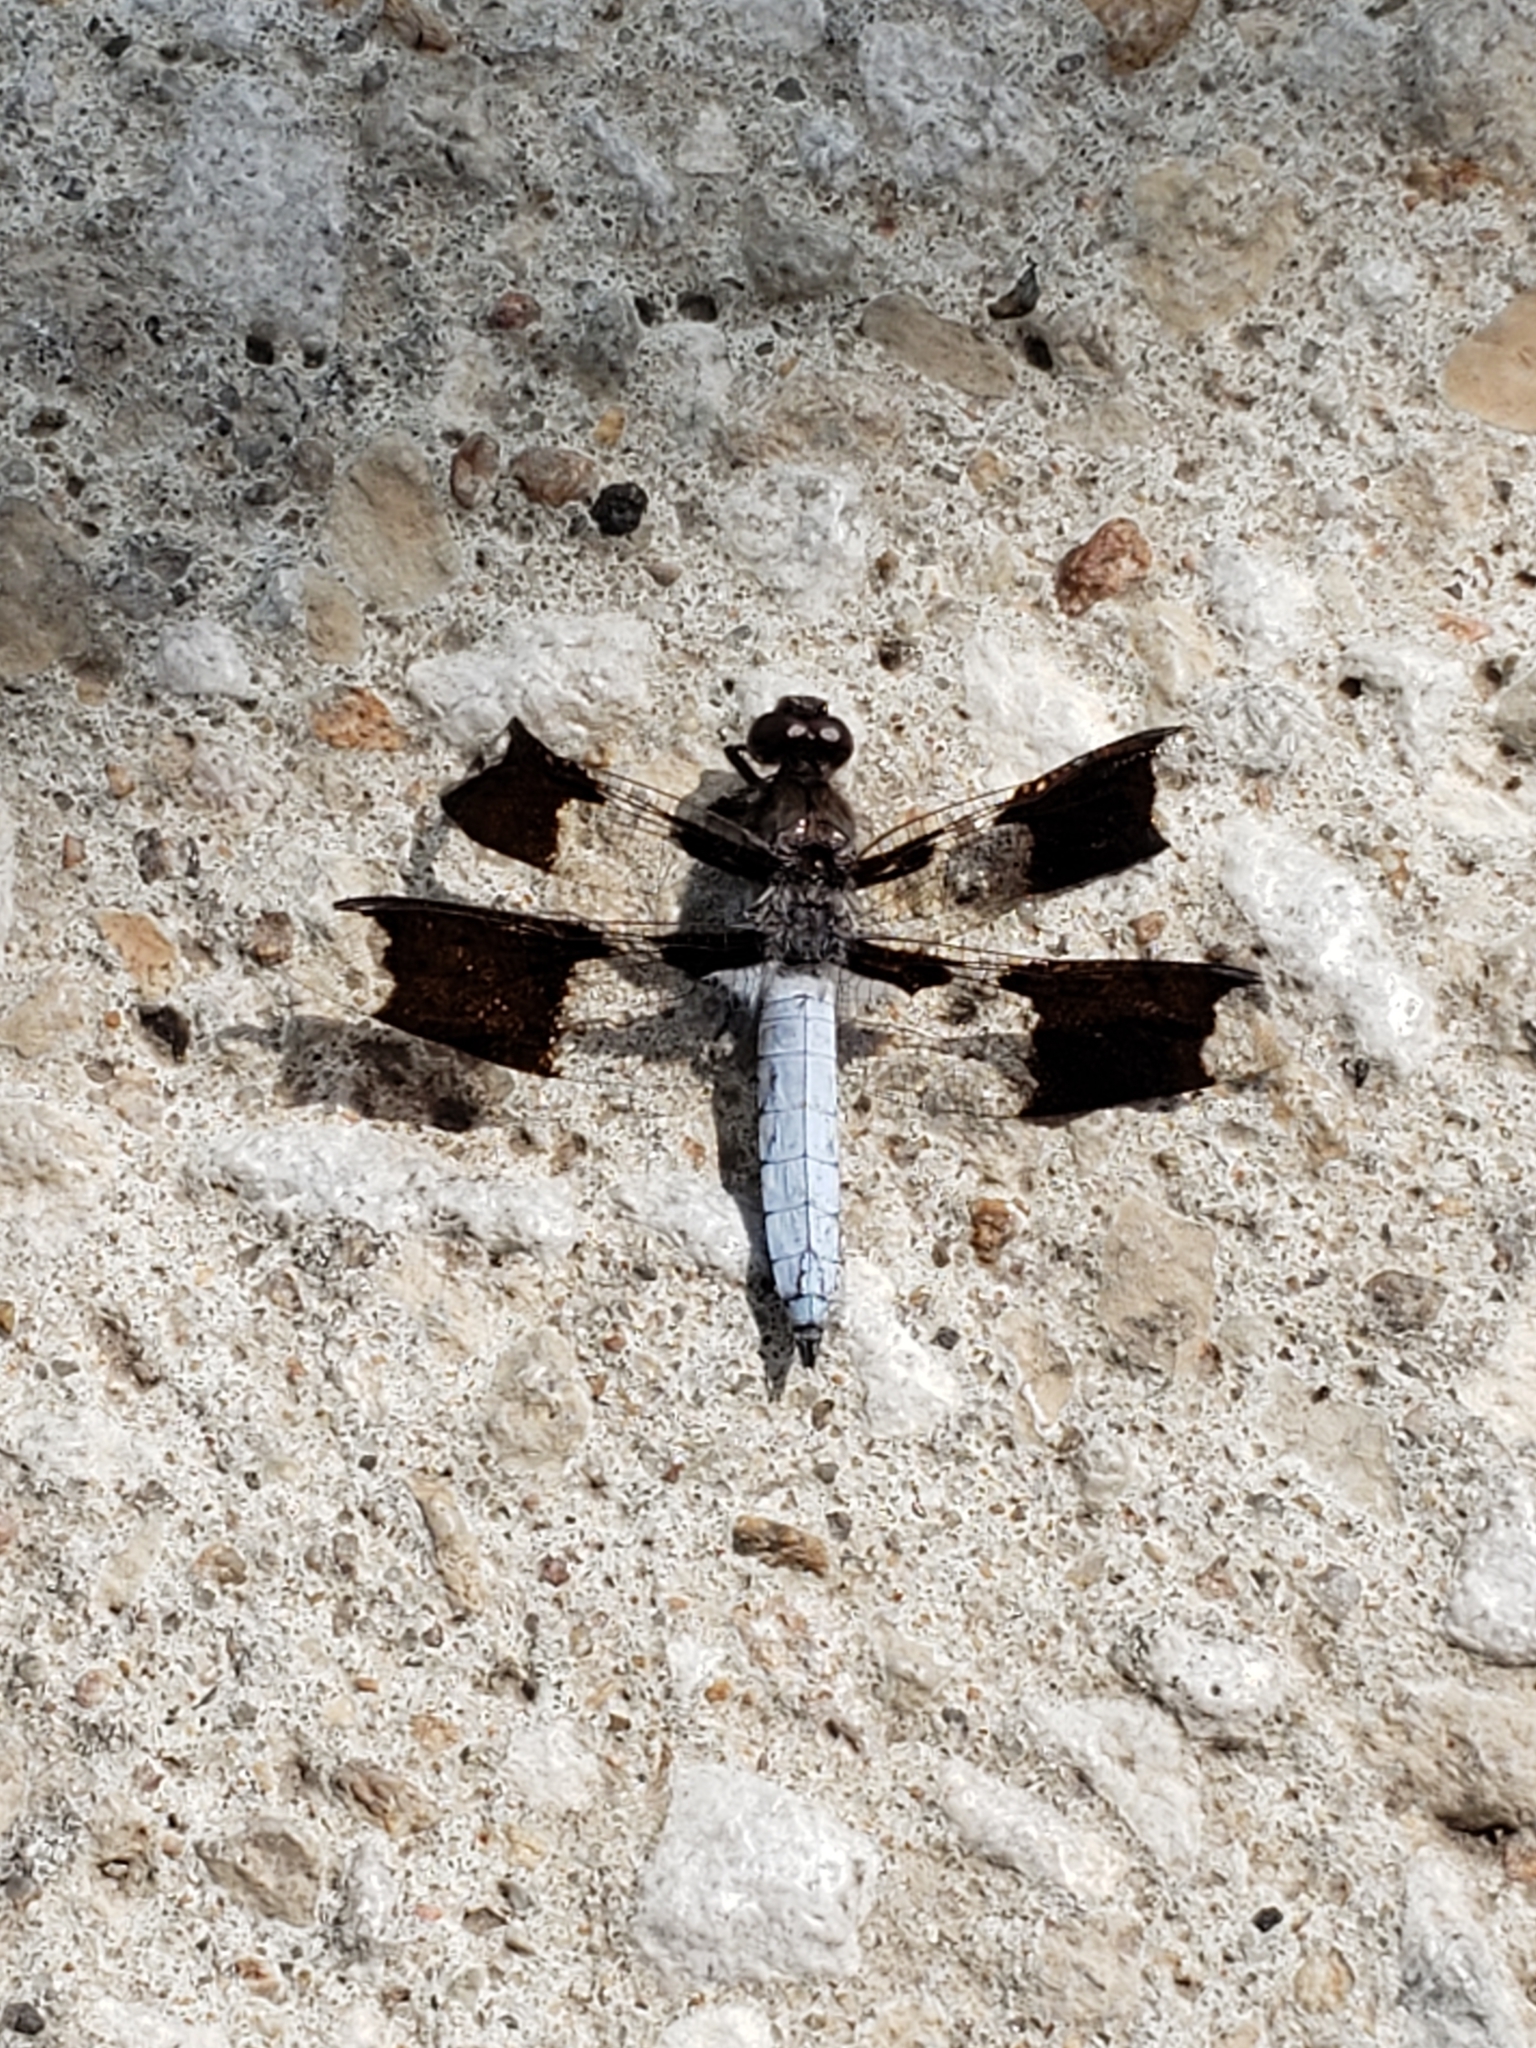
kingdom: Animalia
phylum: Arthropoda
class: Insecta
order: Odonata
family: Libellulidae
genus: Plathemis
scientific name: Plathemis lydia
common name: Common whitetail
